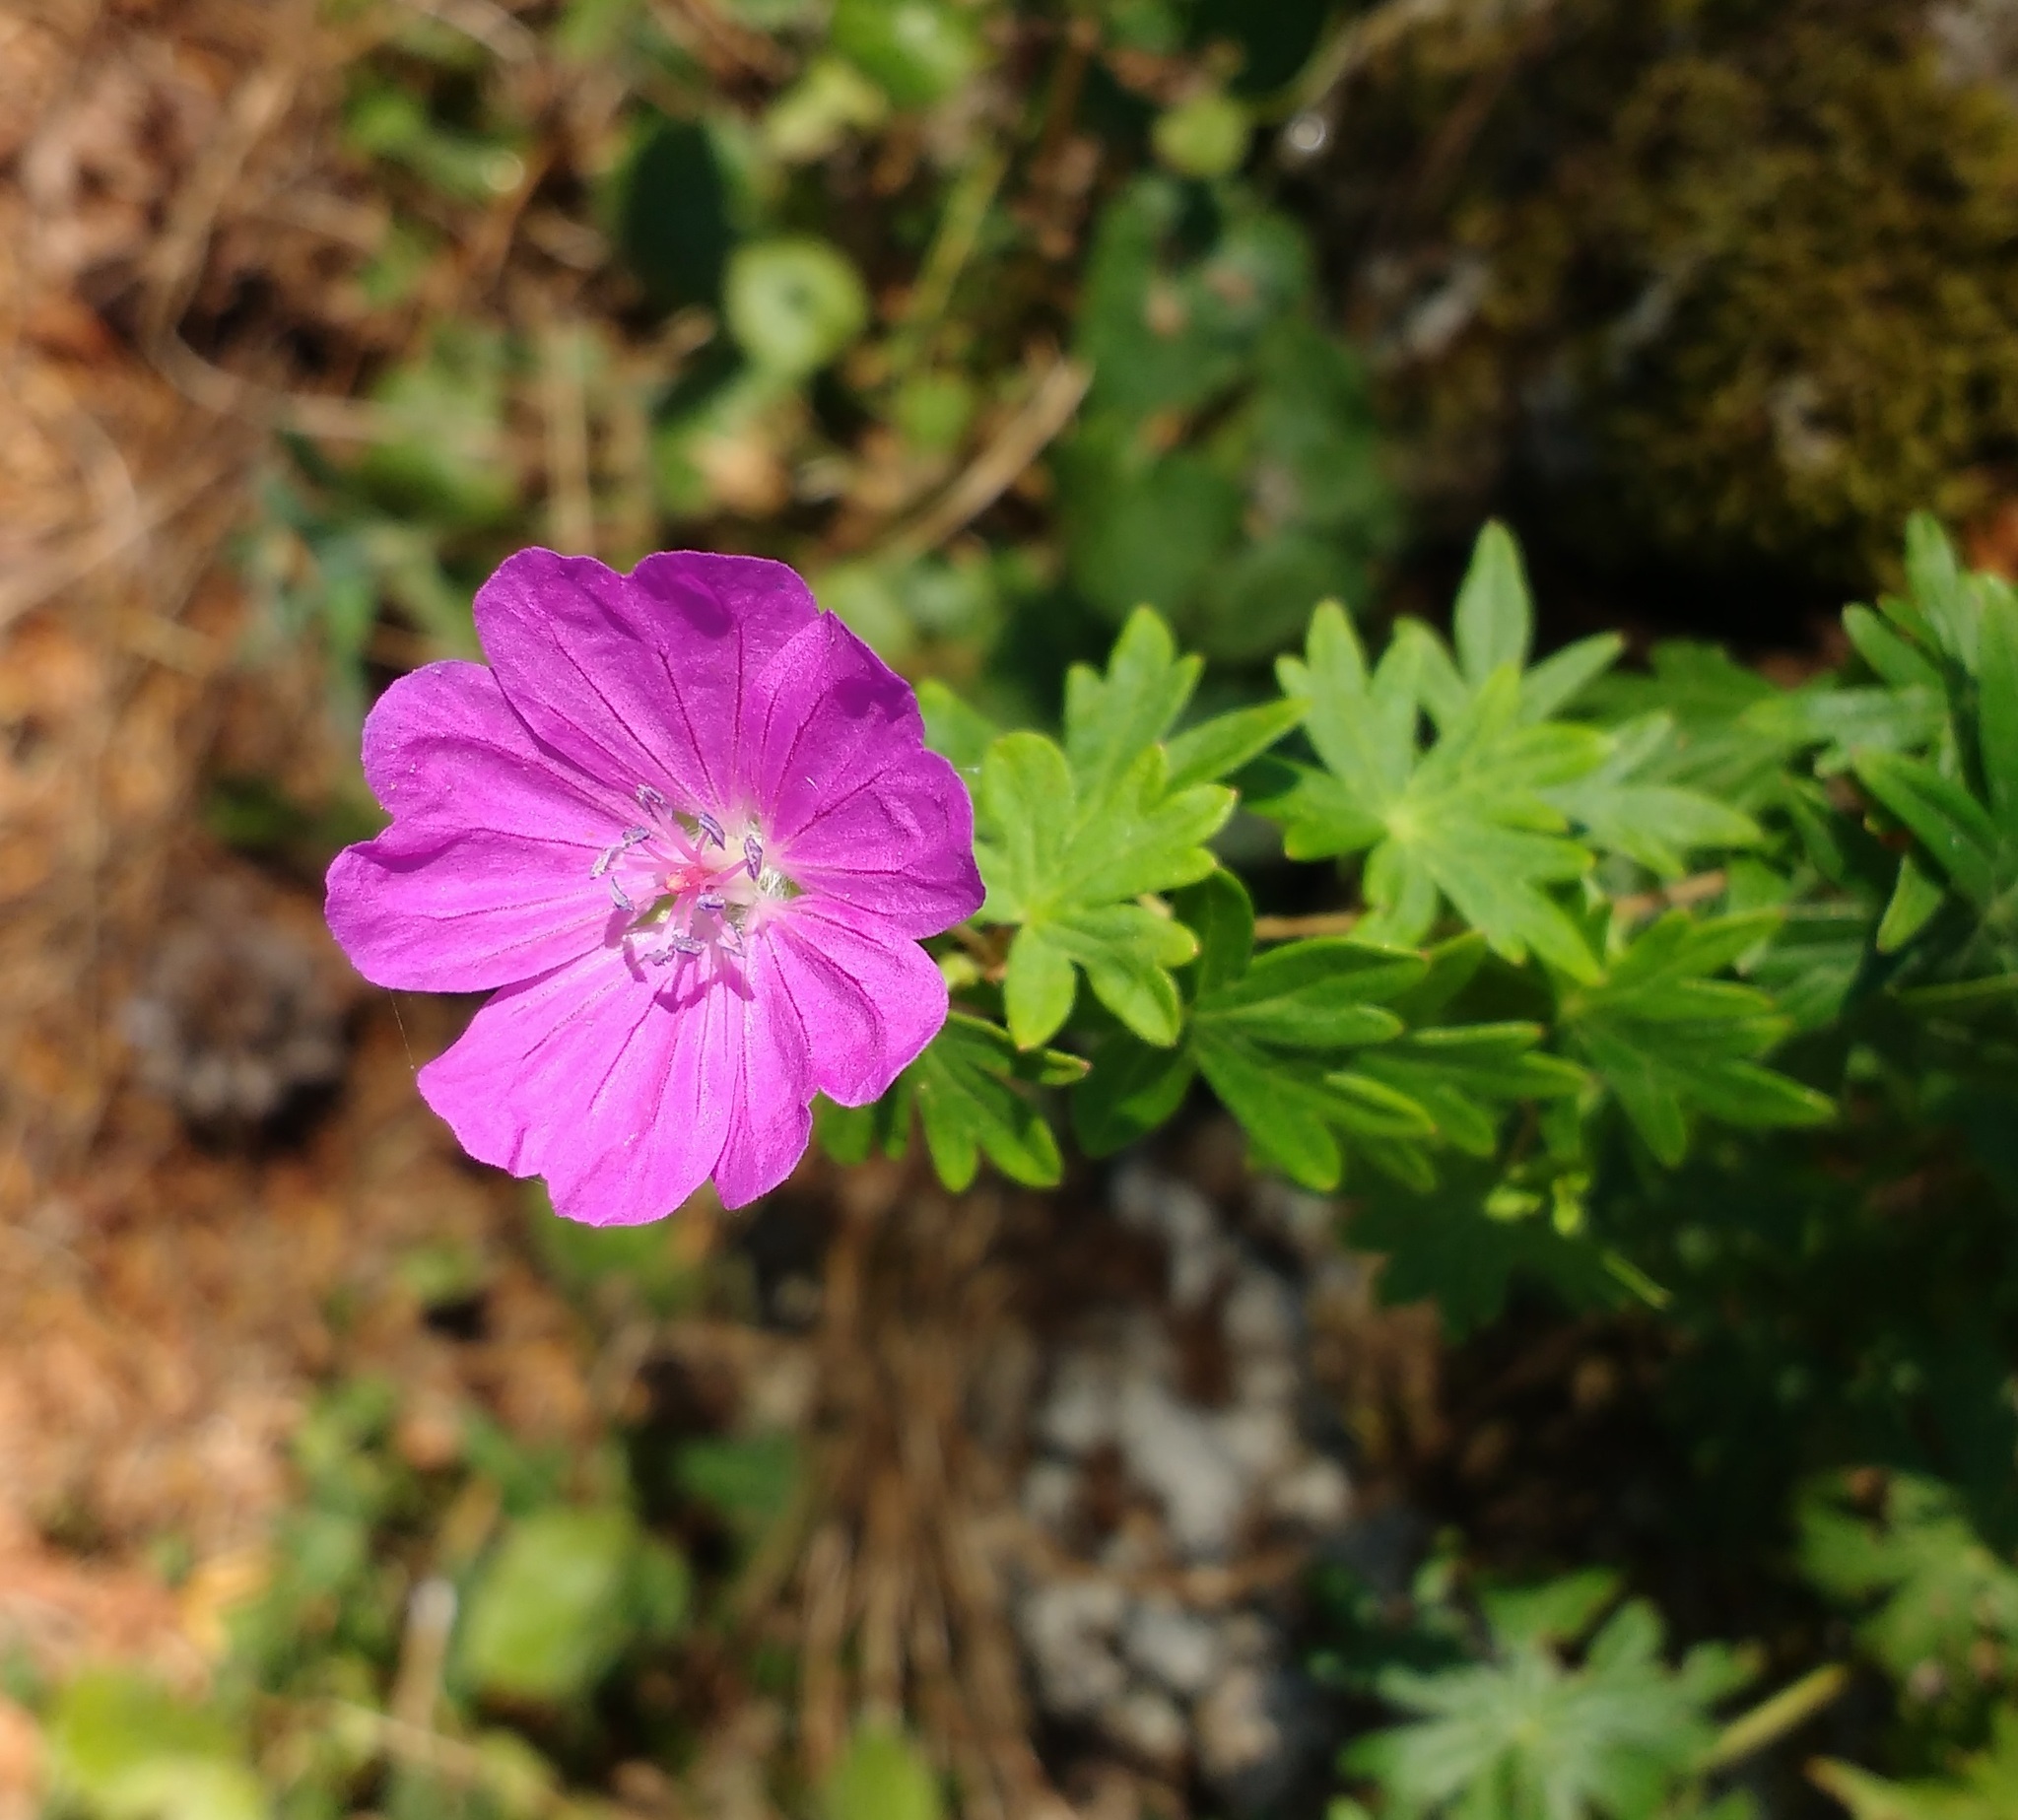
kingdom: Plantae
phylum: Tracheophyta
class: Magnoliopsida
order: Geraniales
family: Geraniaceae
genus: Geranium
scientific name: Geranium sanguineum
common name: Bloody crane's-bill
